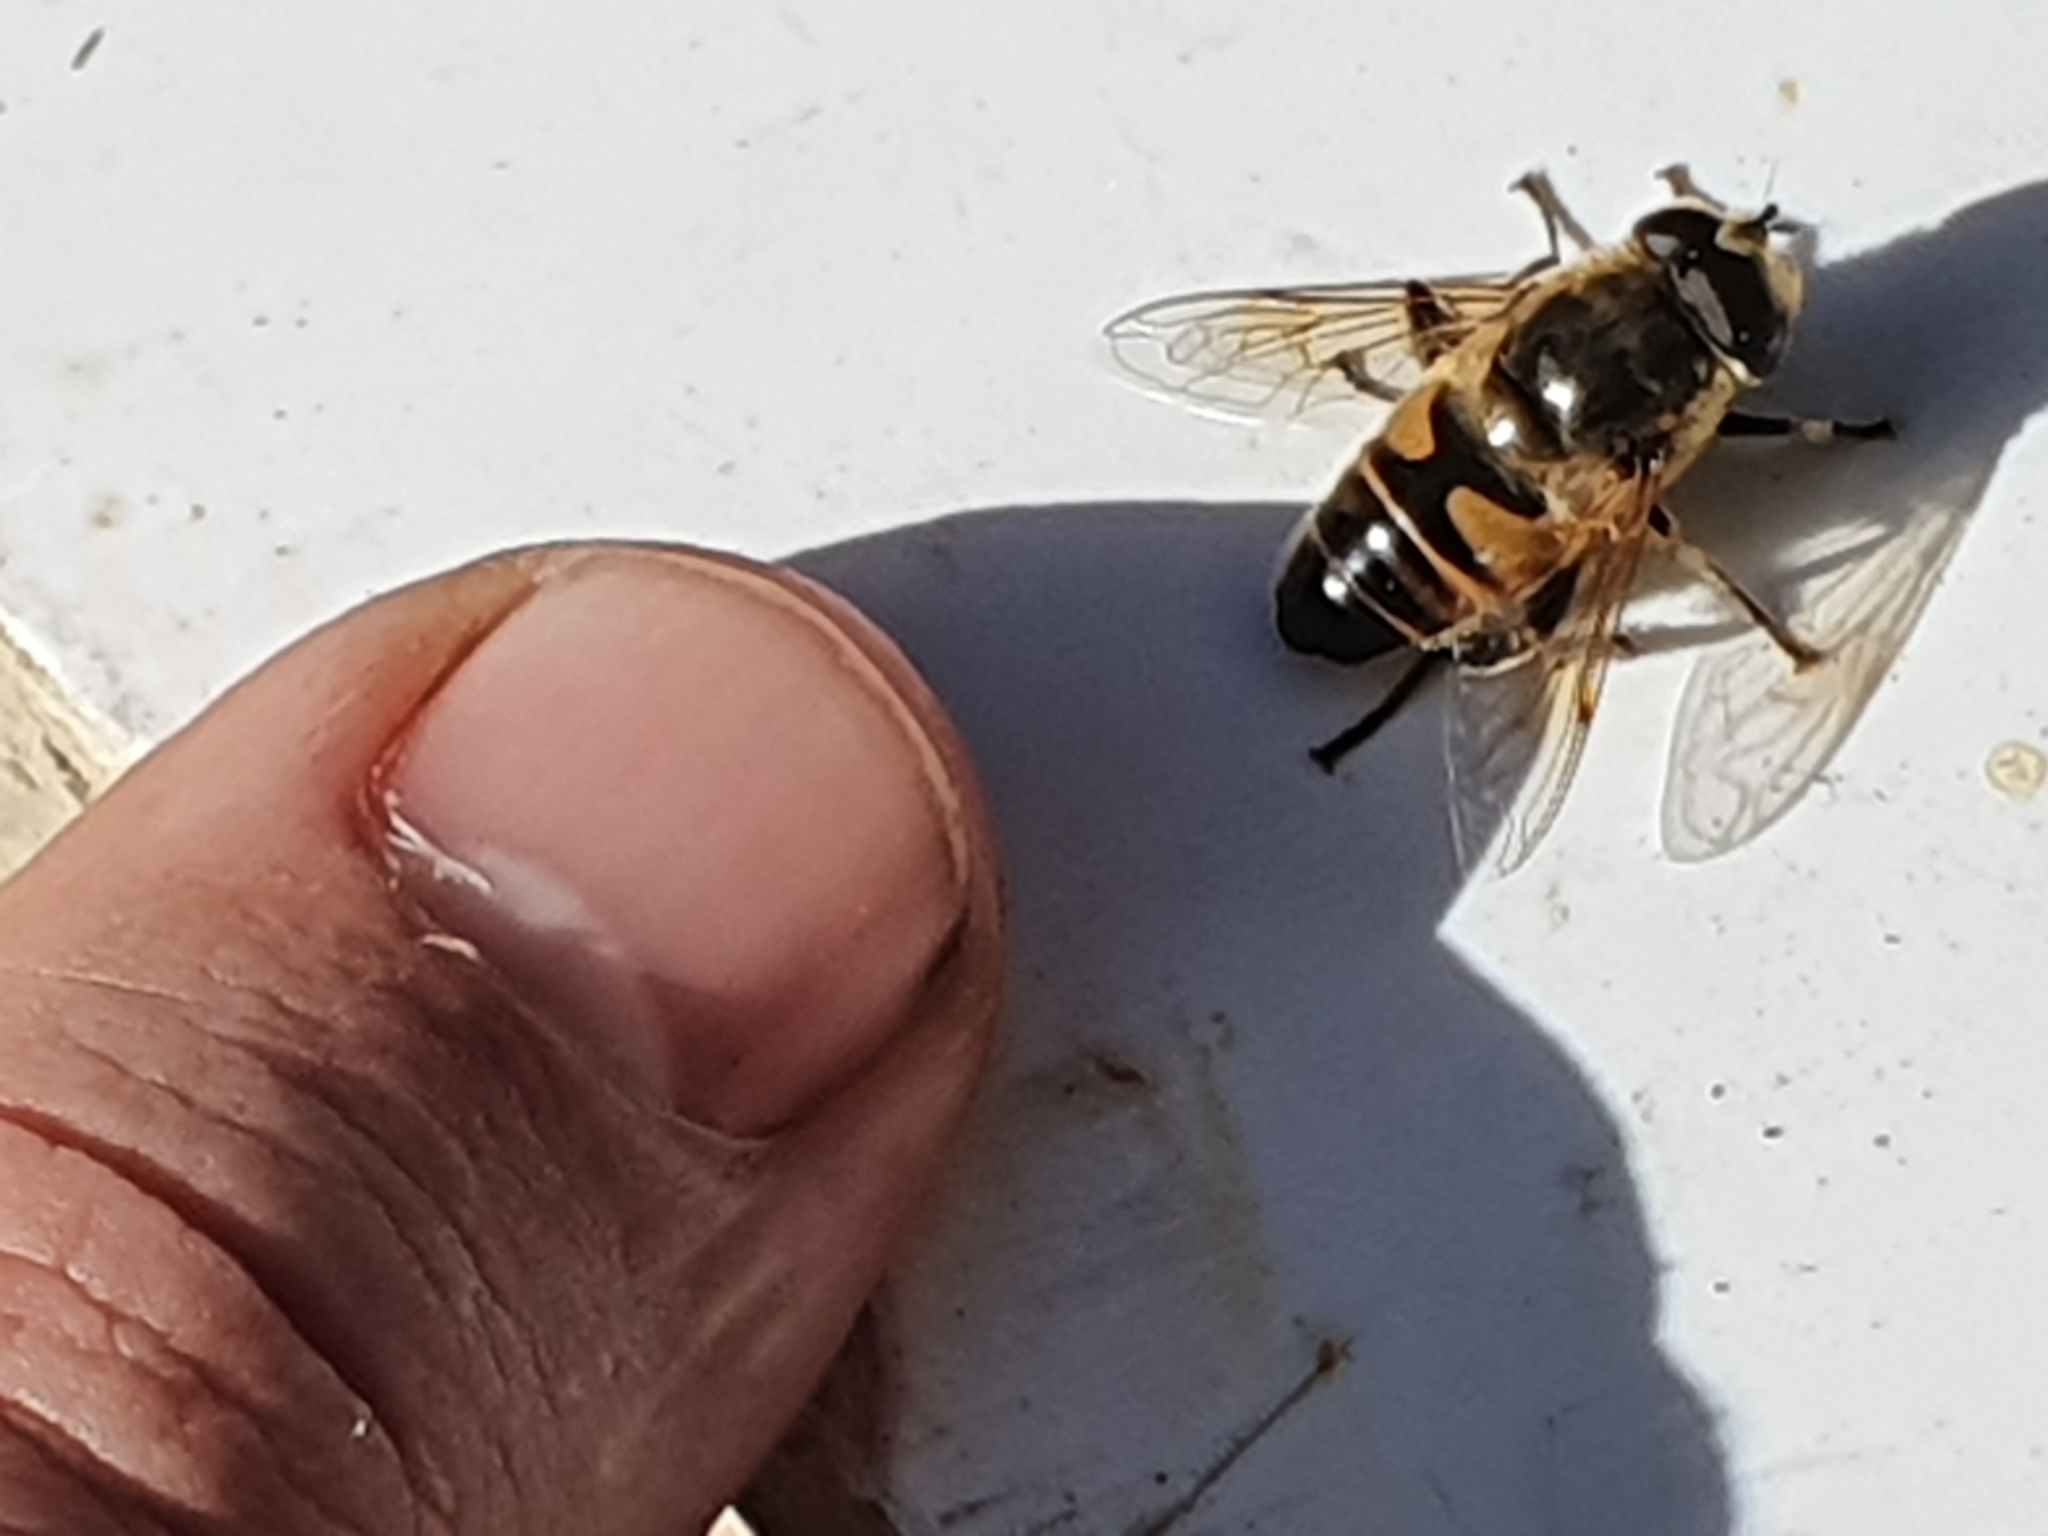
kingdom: Animalia
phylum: Arthropoda
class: Insecta
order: Diptera
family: Syrphidae
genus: Eristalis
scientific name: Eristalis tenax
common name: Drone fly
